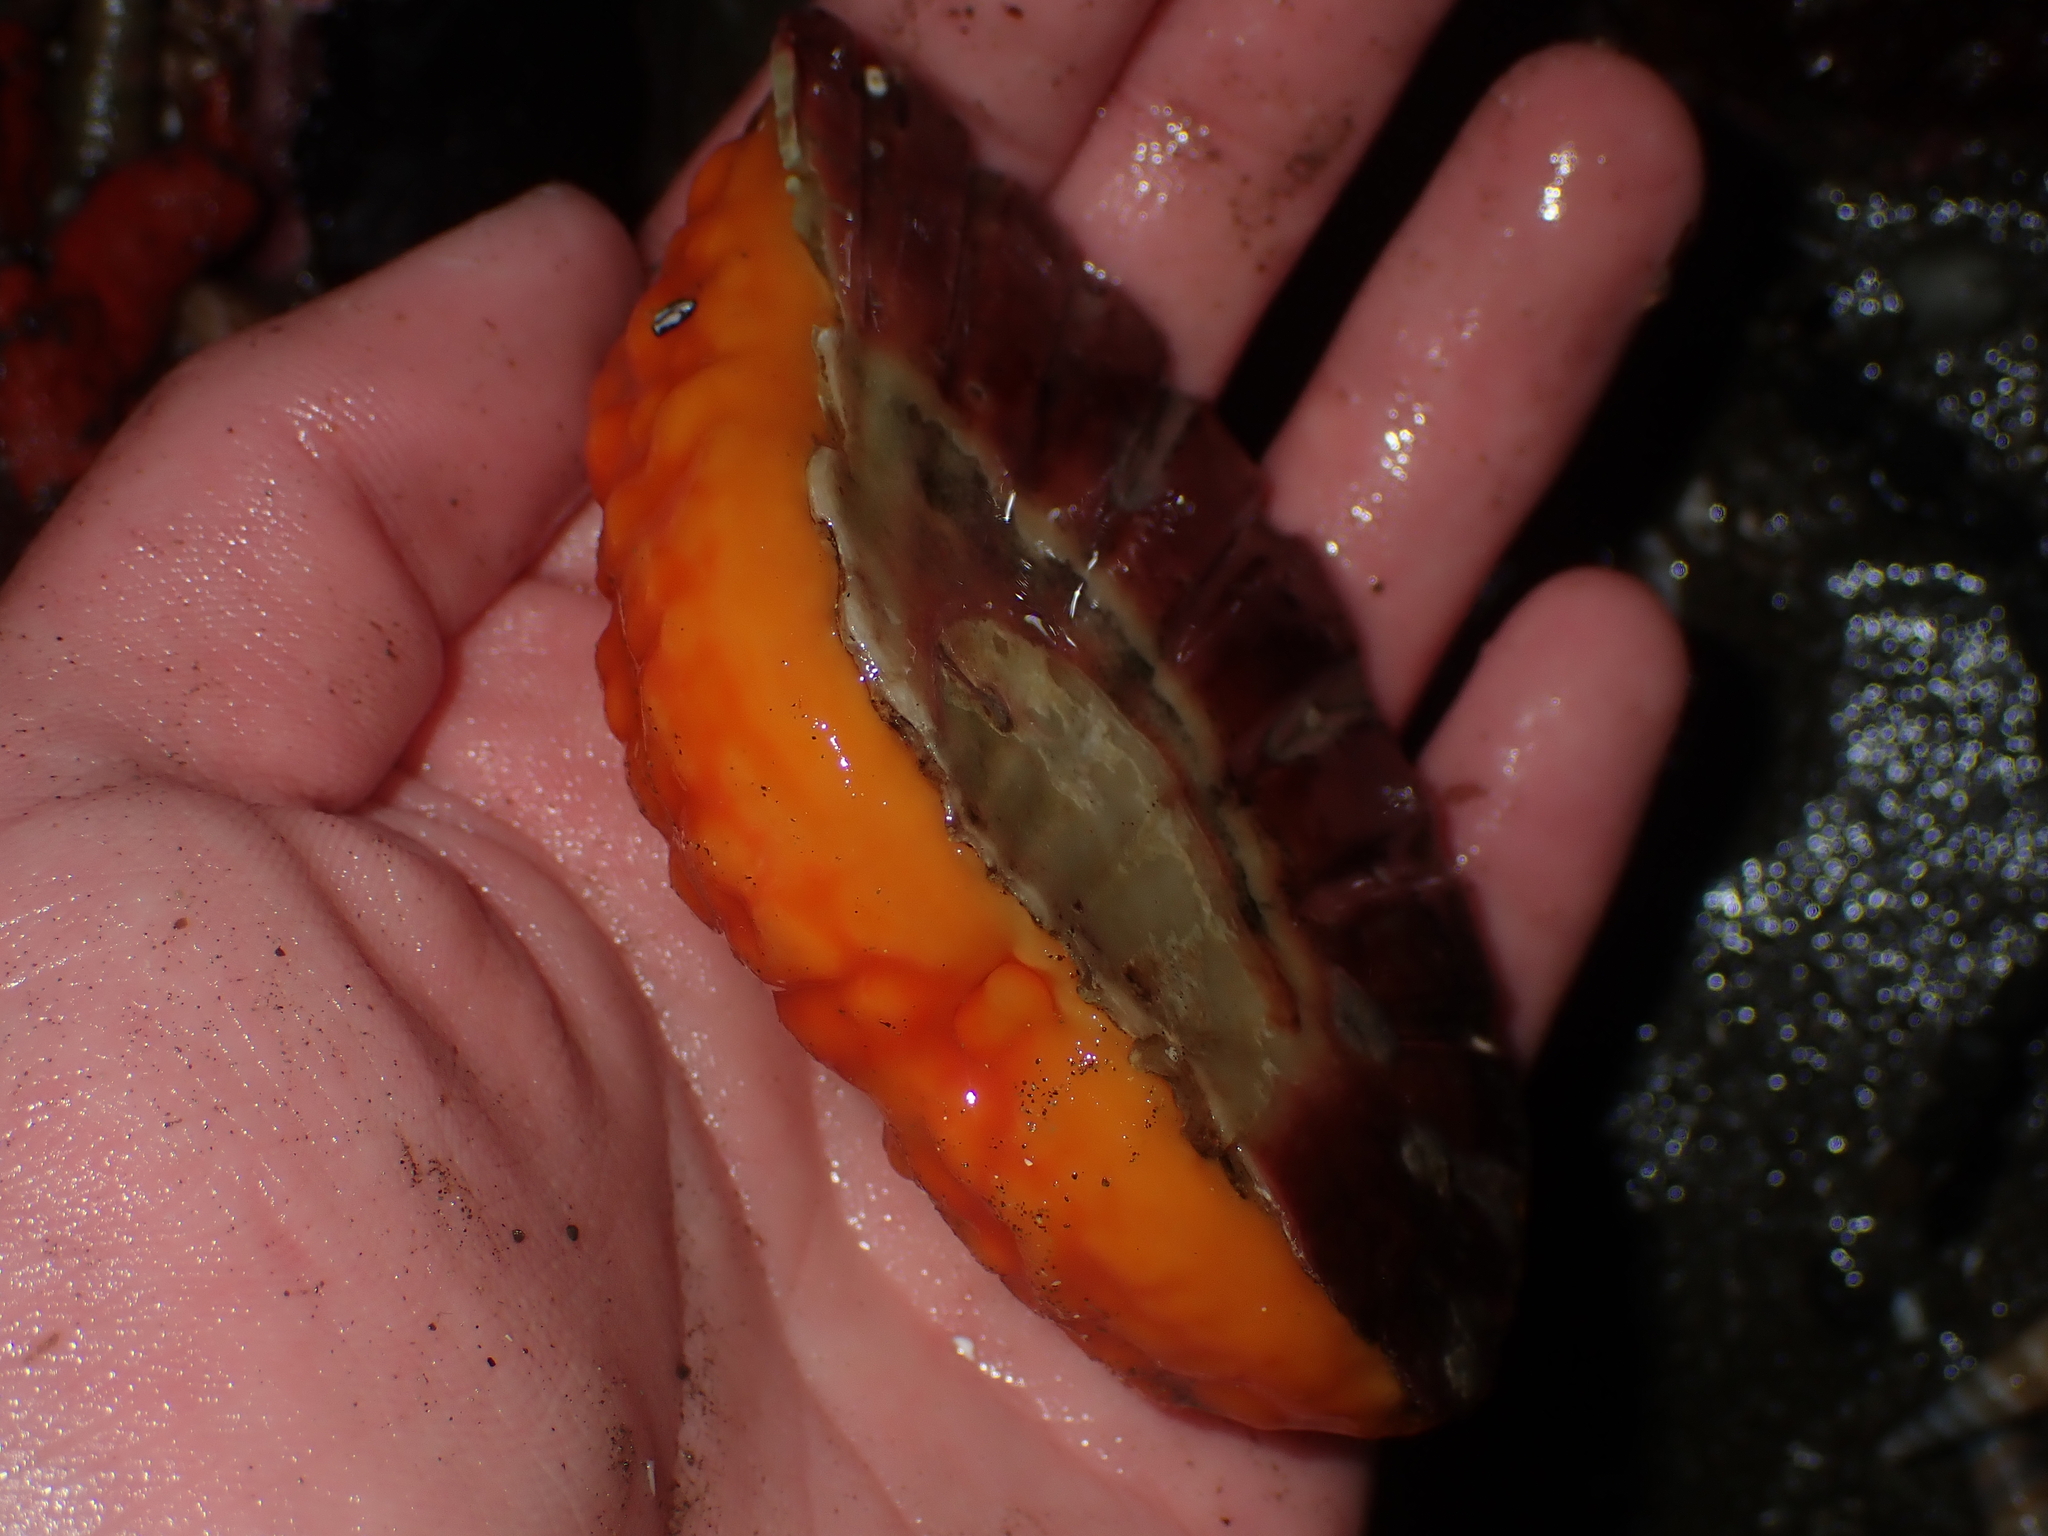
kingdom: Animalia
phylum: Porifera
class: Demospongiae
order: Polymastiida
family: Polymastiidae
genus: Polymastia
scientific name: Polymastia aurantia
